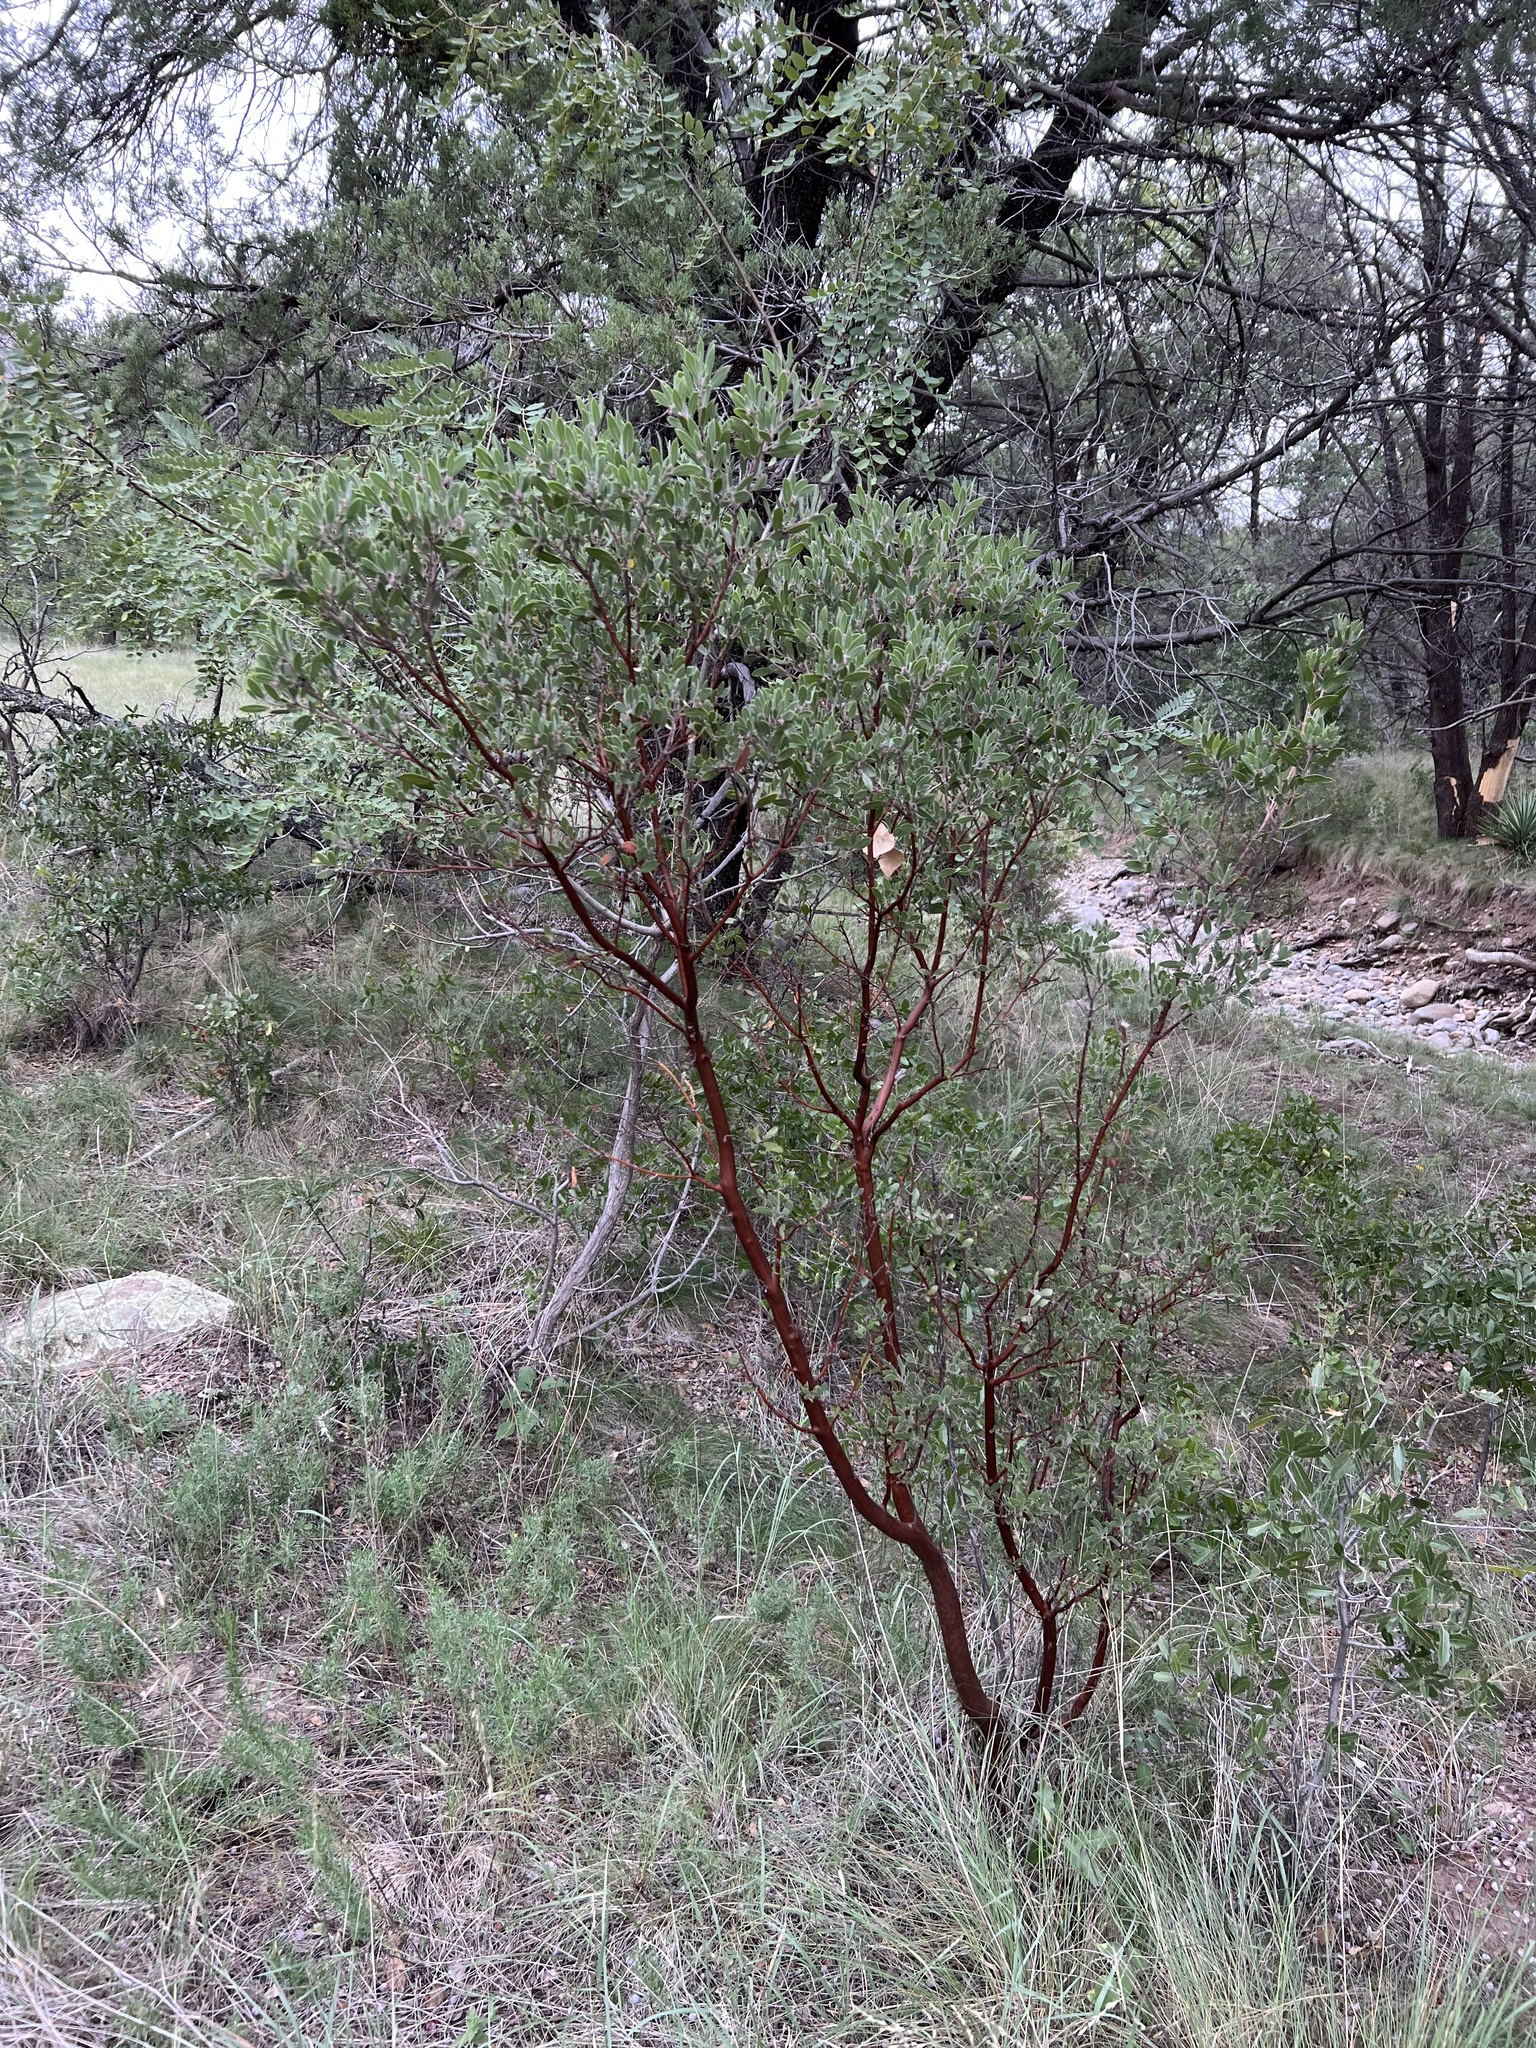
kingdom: Plantae
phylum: Tracheophyta
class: Magnoliopsida
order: Ericales
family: Ericaceae
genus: Arctostaphylos
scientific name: Arctostaphylos pungens
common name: Mexican manzanita
